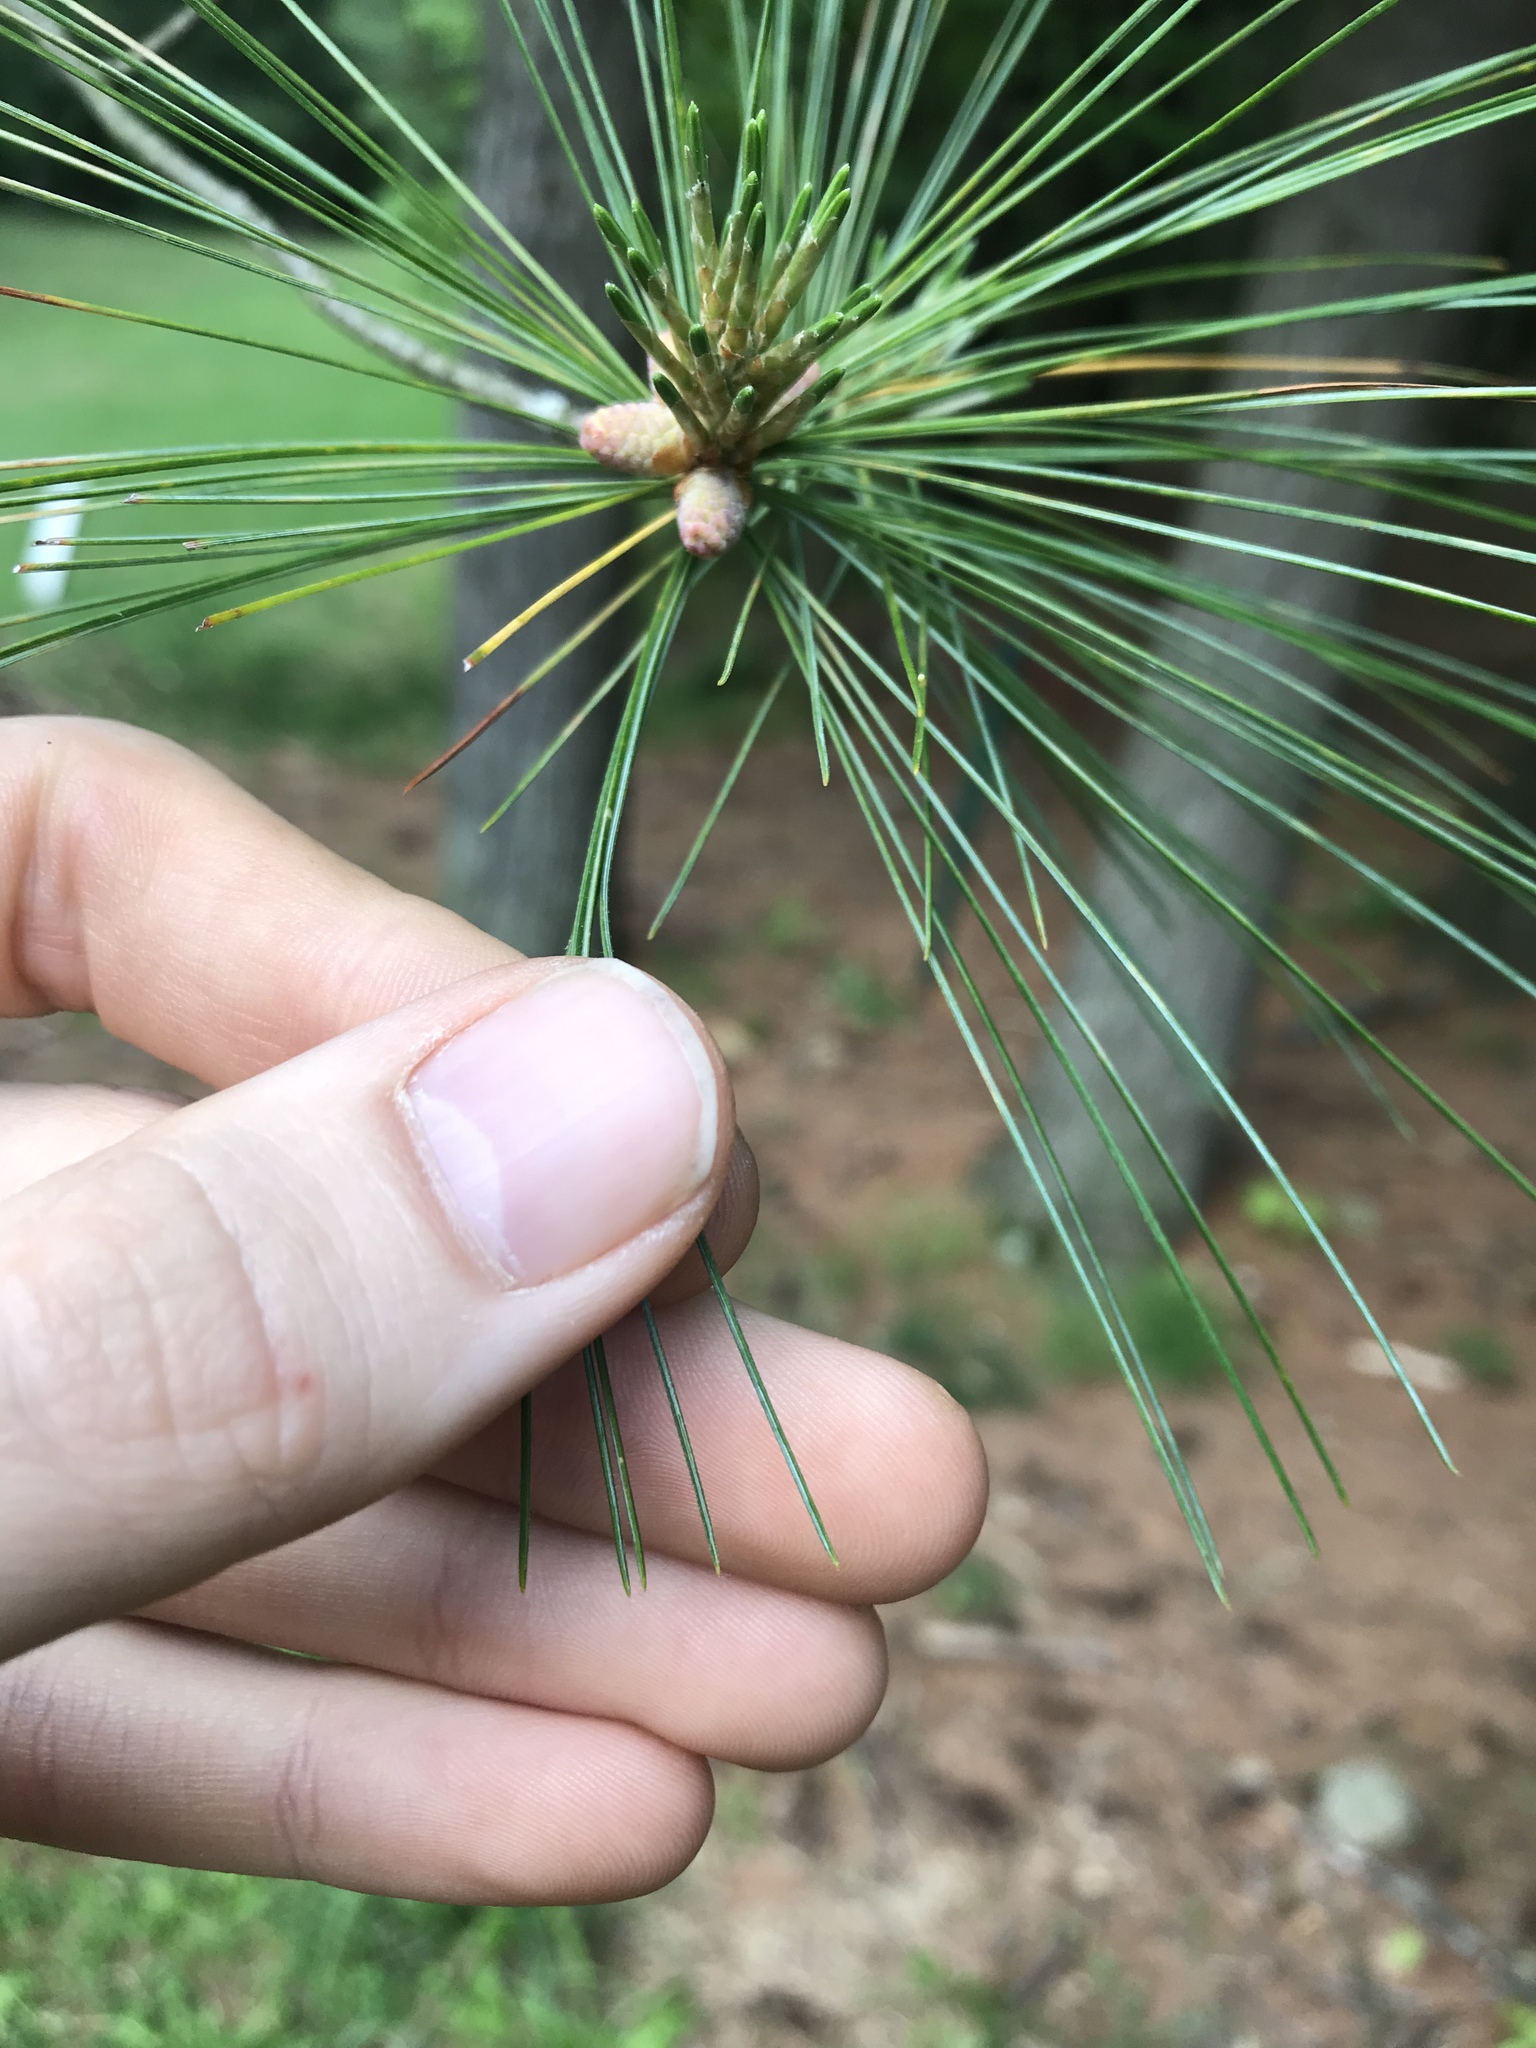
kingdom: Plantae
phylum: Tracheophyta
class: Pinopsida
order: Pinales
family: Pinaceae
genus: Pinus
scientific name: Pinus strobus
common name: Weymouth pine
